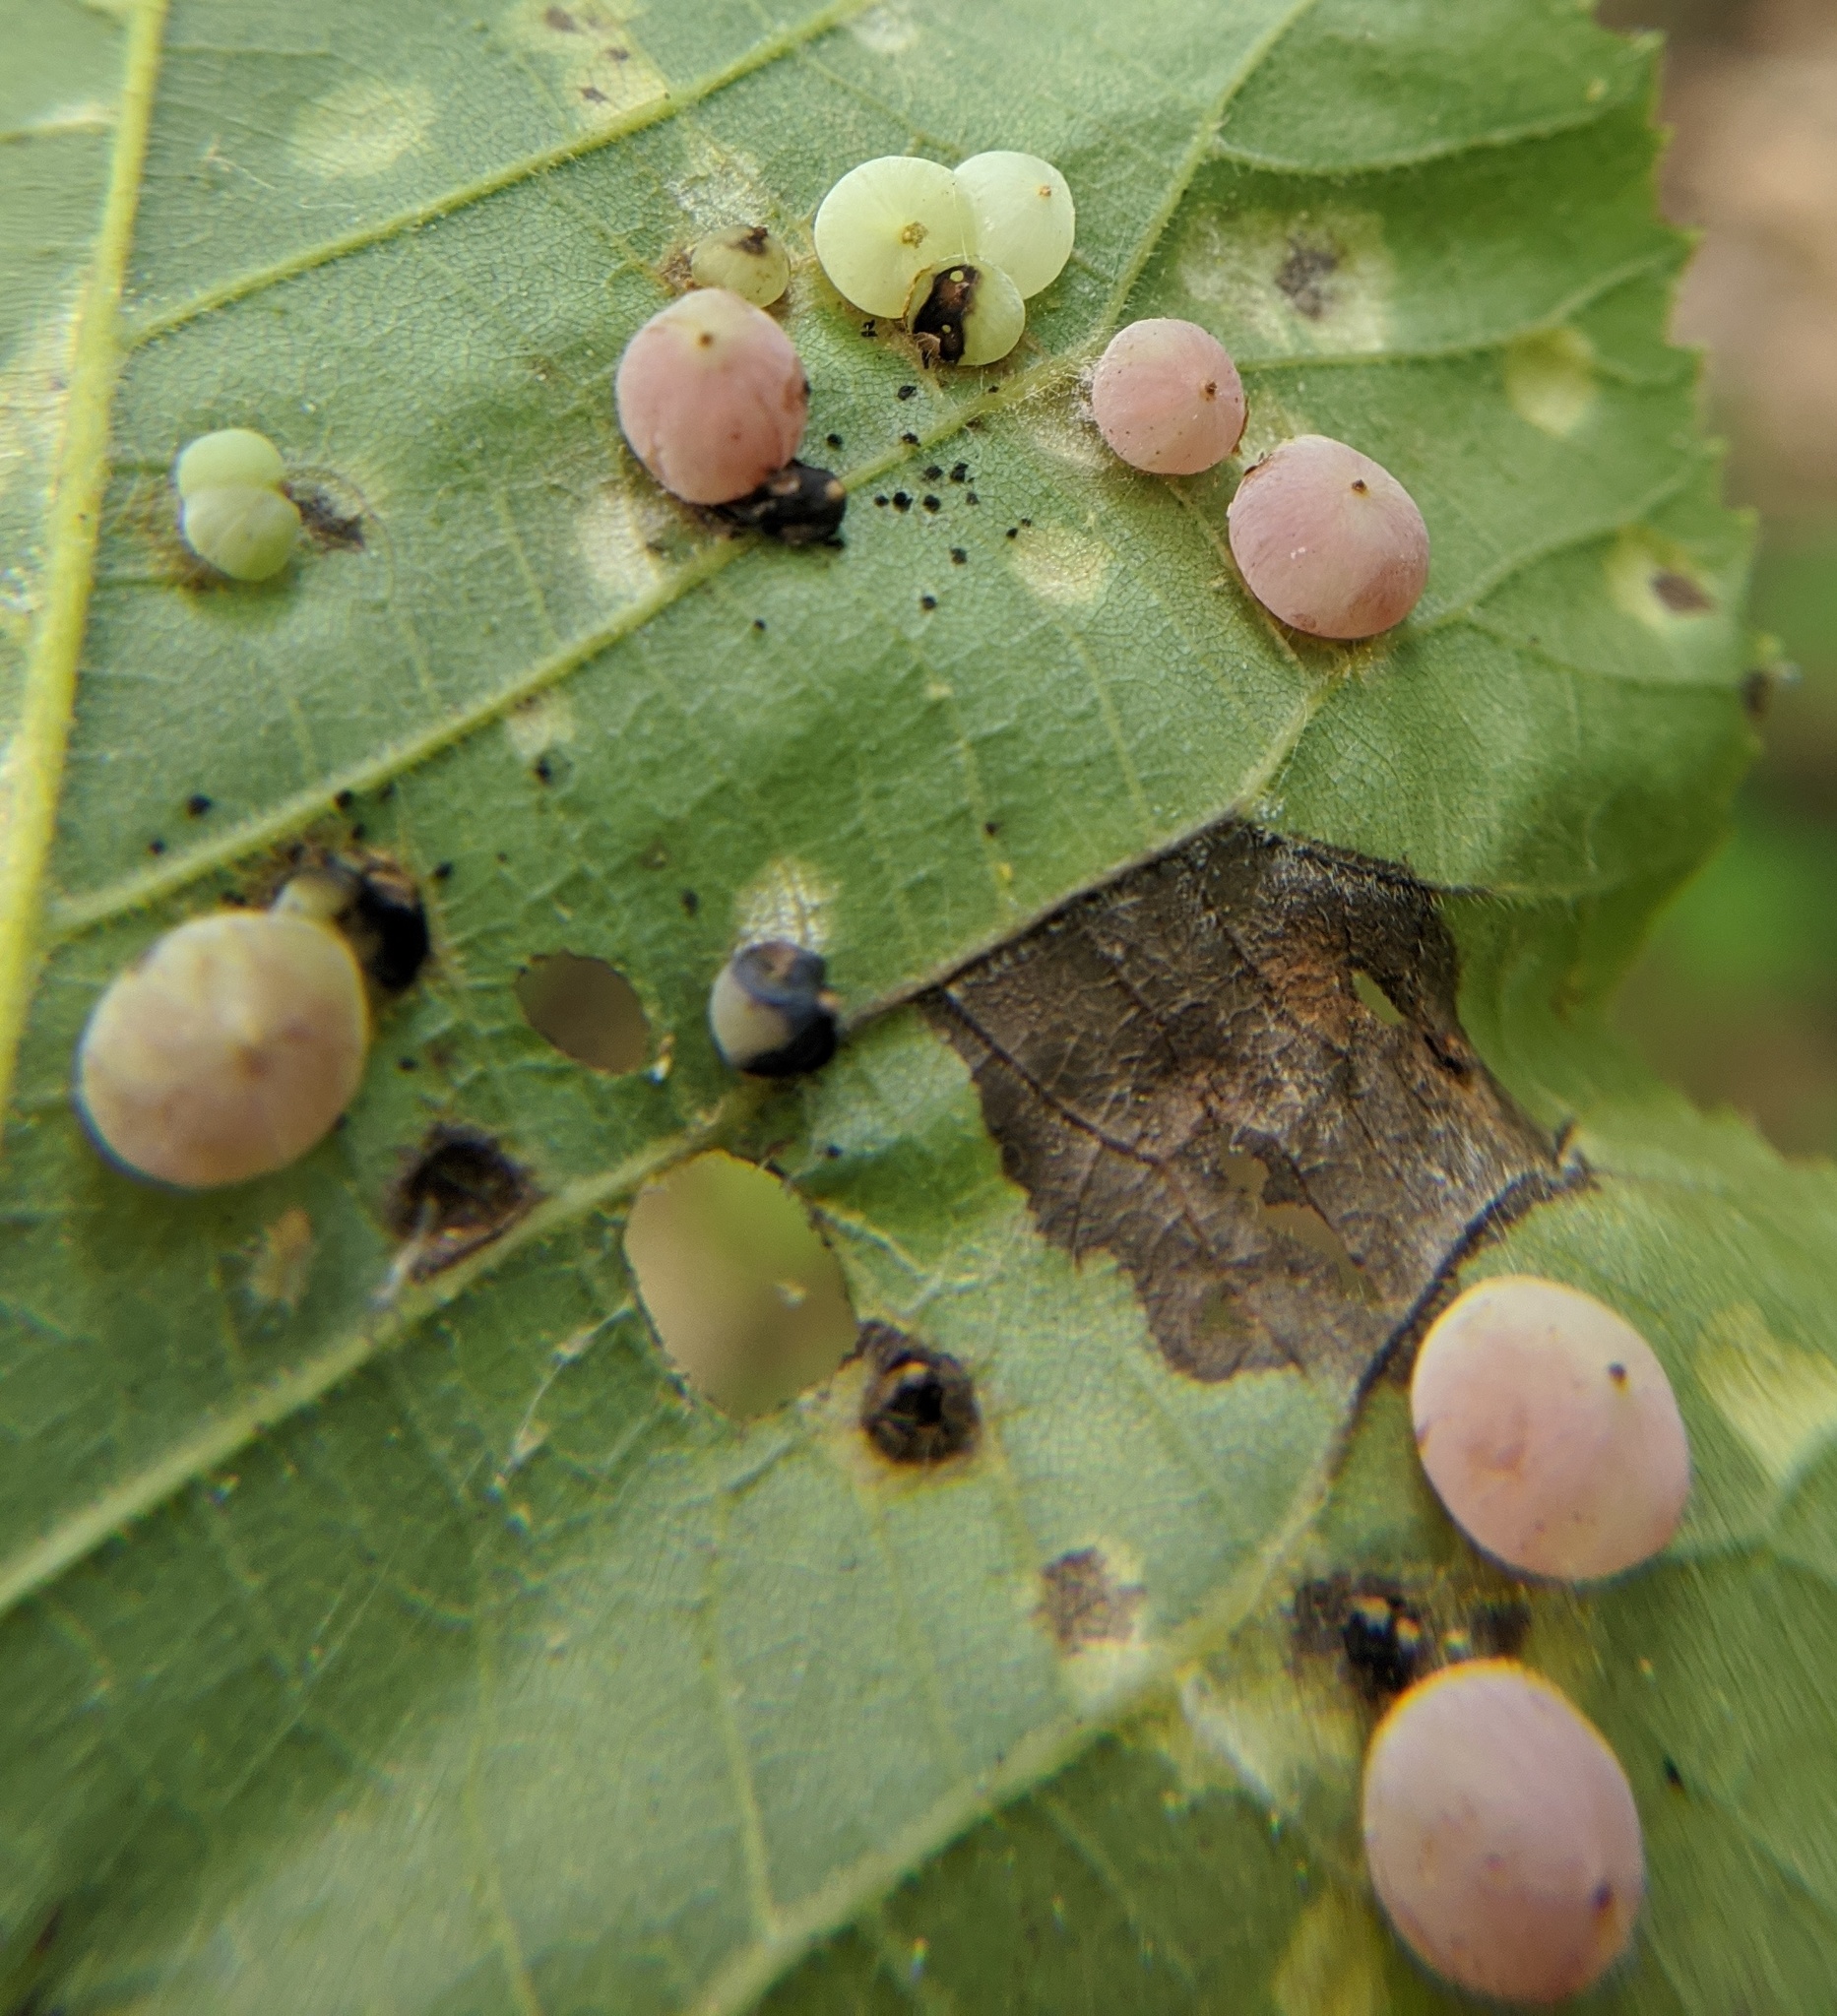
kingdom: Animalia
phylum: Arthropoda
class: Insecta
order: Diptera
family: Cecidomyiidae
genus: Caryomyia
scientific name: Caryomyia glauciglobus
